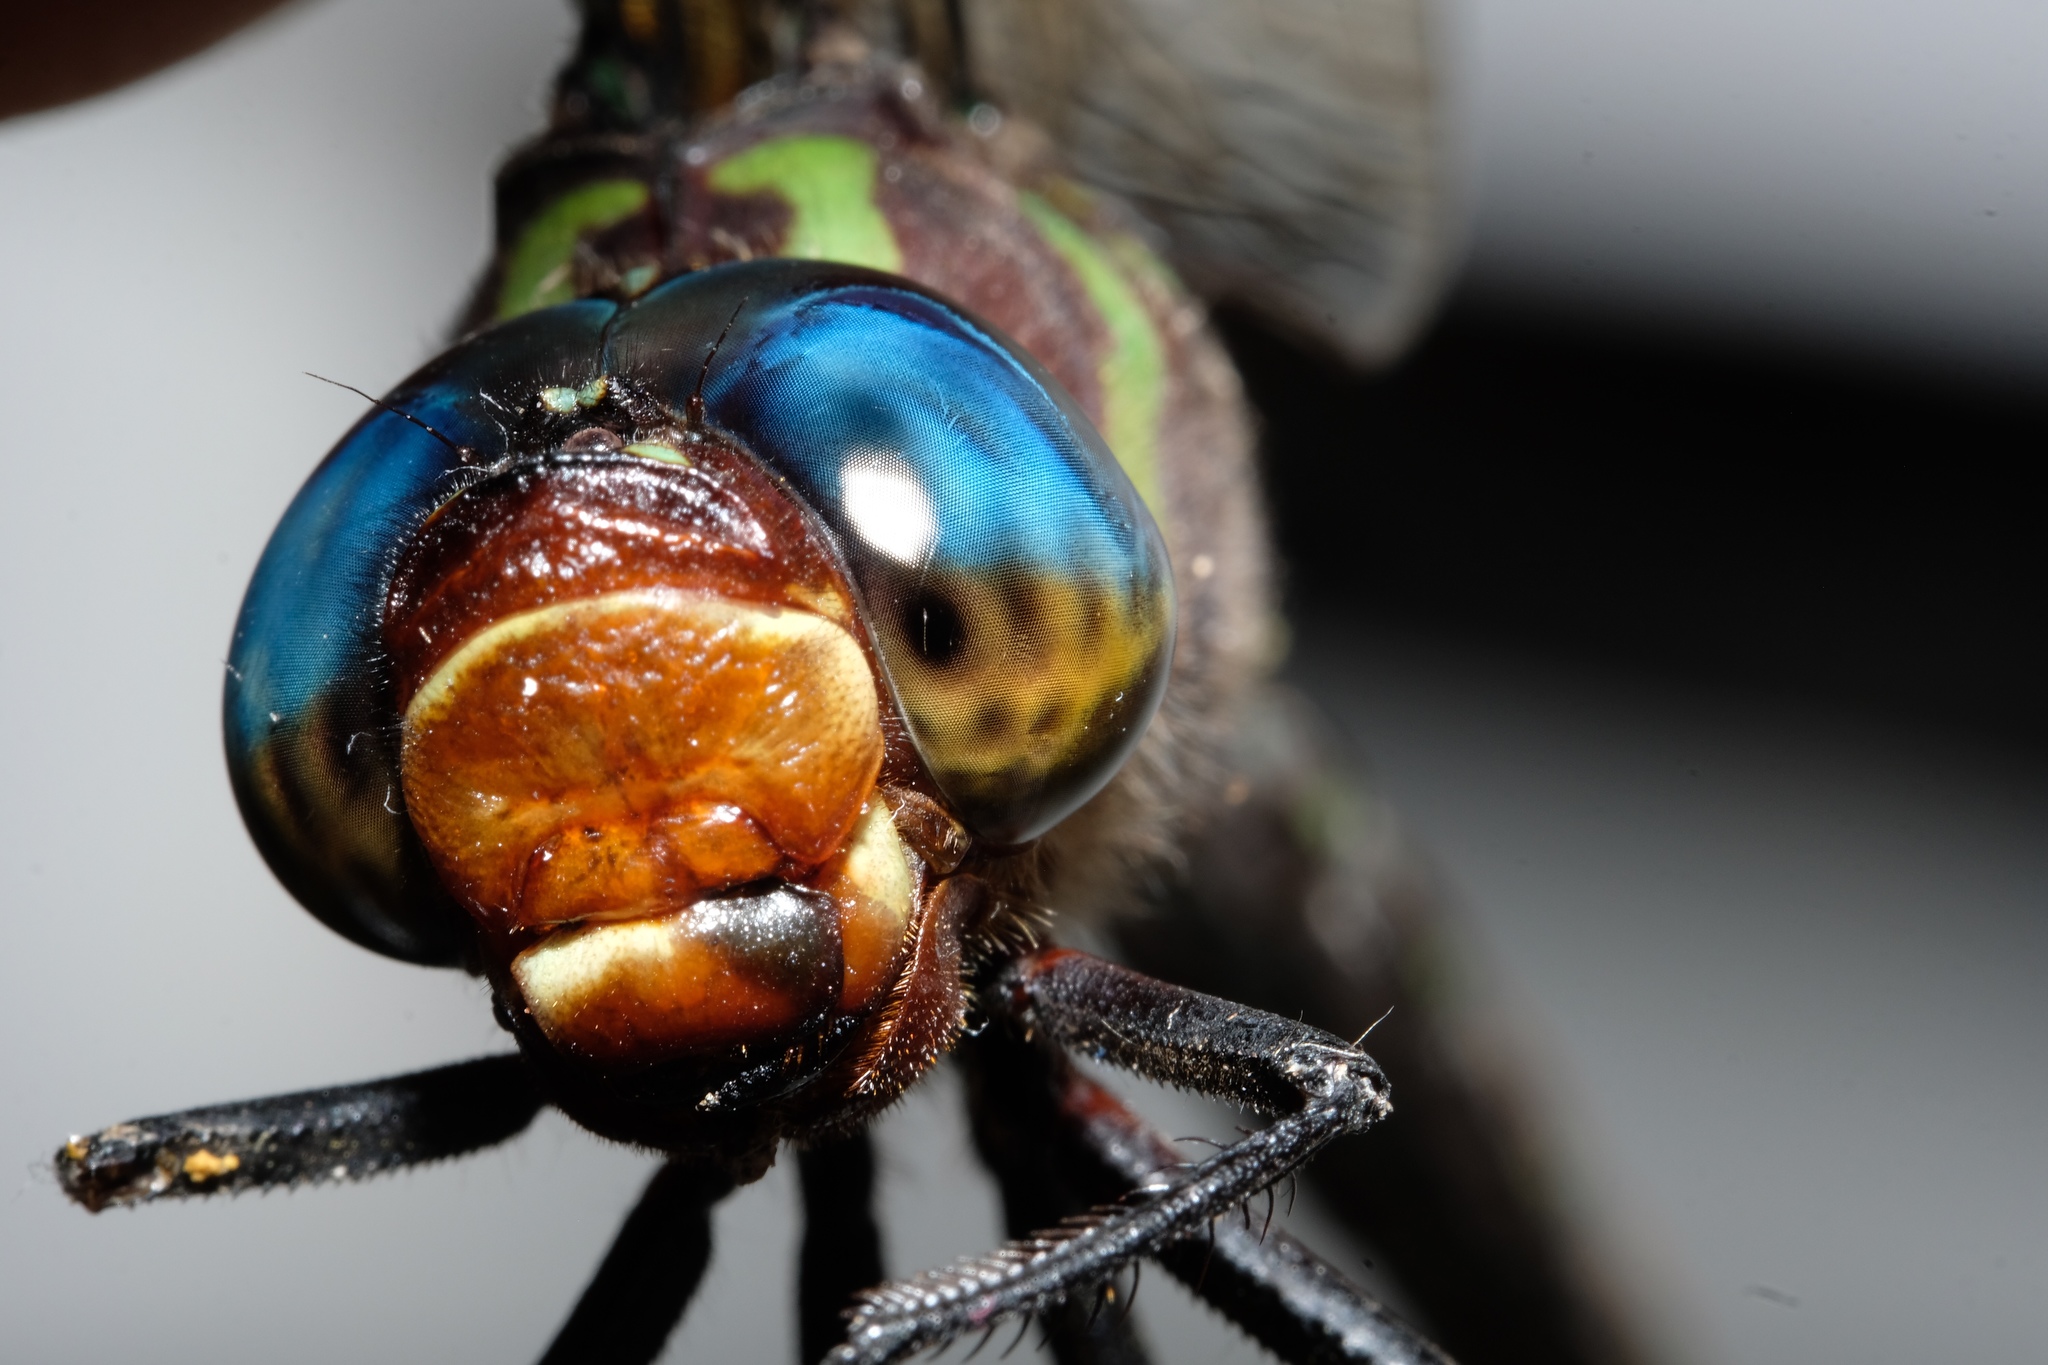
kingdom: Animalia
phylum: Arthropoda
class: Insecta
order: Odonata
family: Aeshnidae
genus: Epiaeschna
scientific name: Epiaeschna heros
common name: Swamp darner
